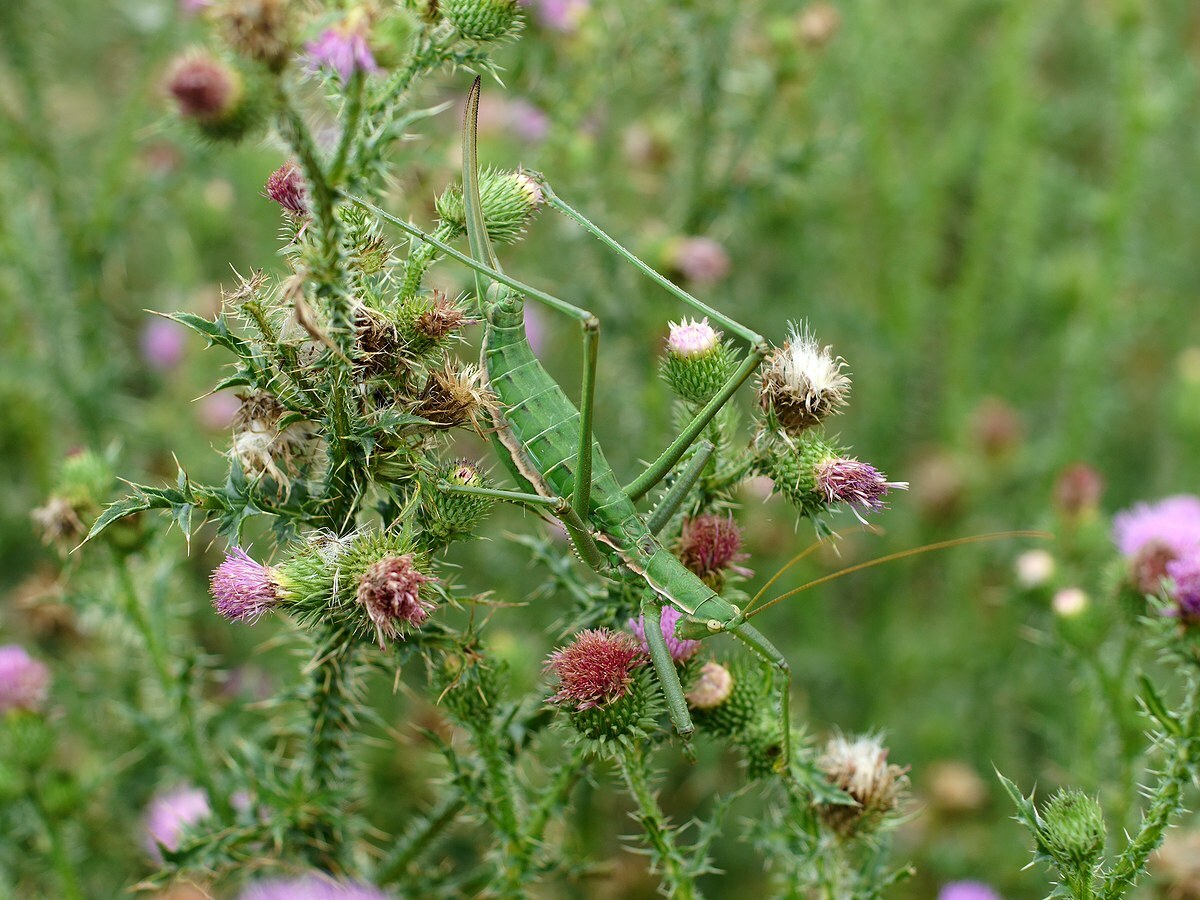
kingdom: Animalia
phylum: Arthropoda
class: Insecta
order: Orthoptera
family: Tettigoniidae
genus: Saga
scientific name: Saga pedo
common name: Common predatory bush-cricket
